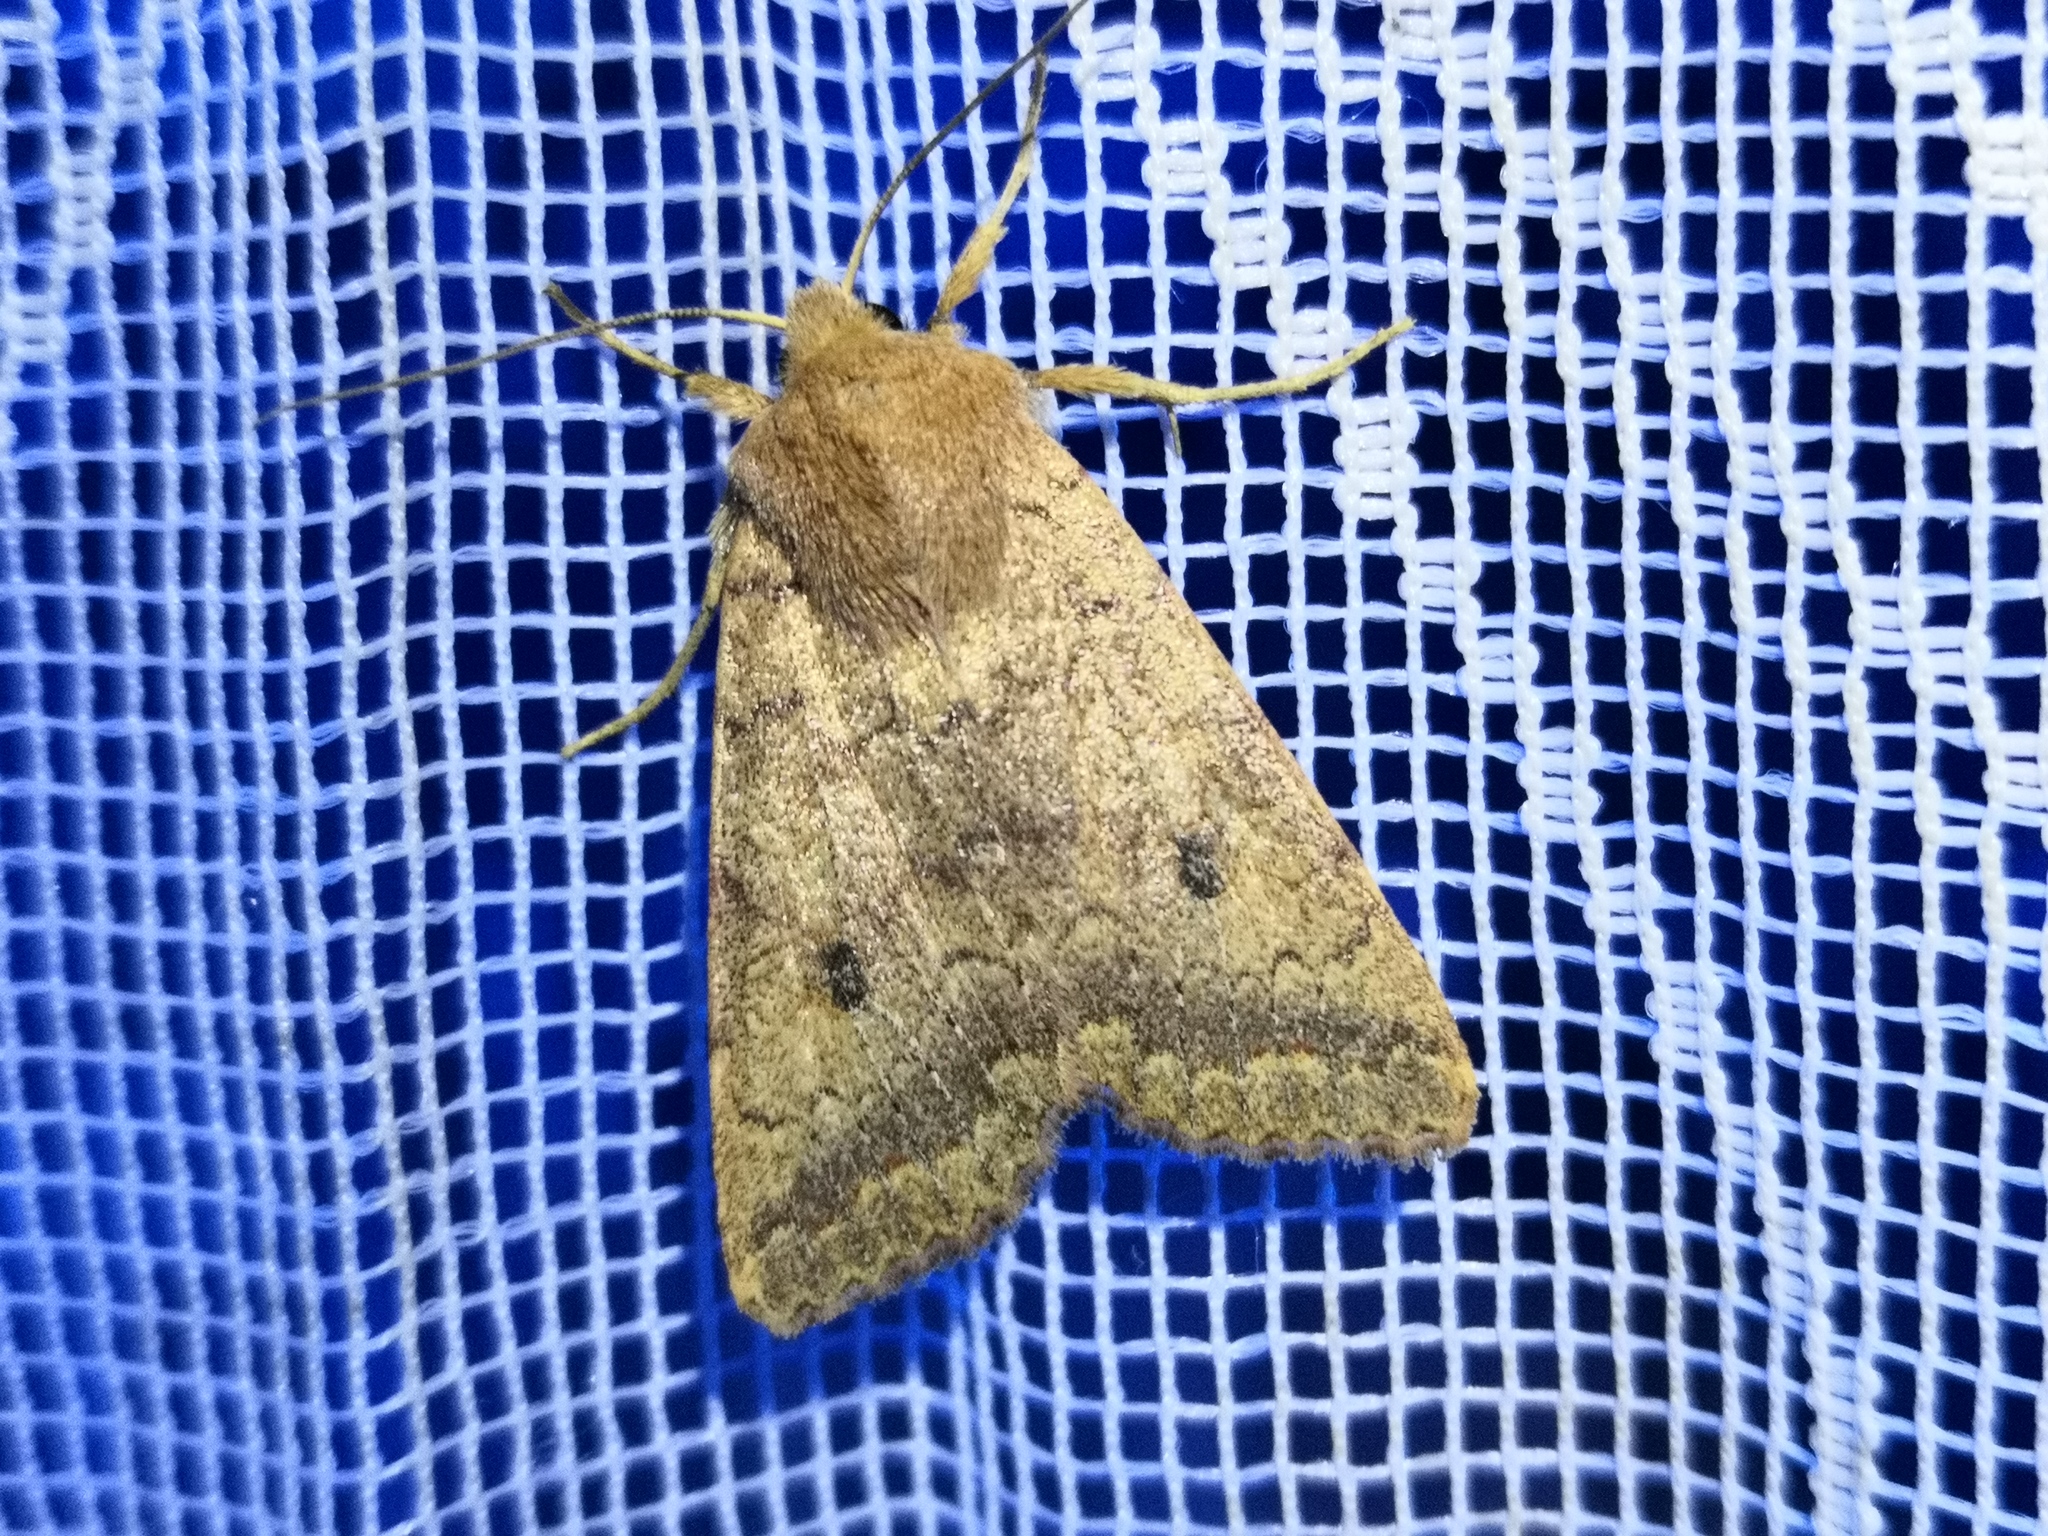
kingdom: Animalia
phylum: Arthropoda
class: Insecta
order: Lepidoptera
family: Noctuidae
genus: Sunira
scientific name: Sunira circellaris
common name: Brick
